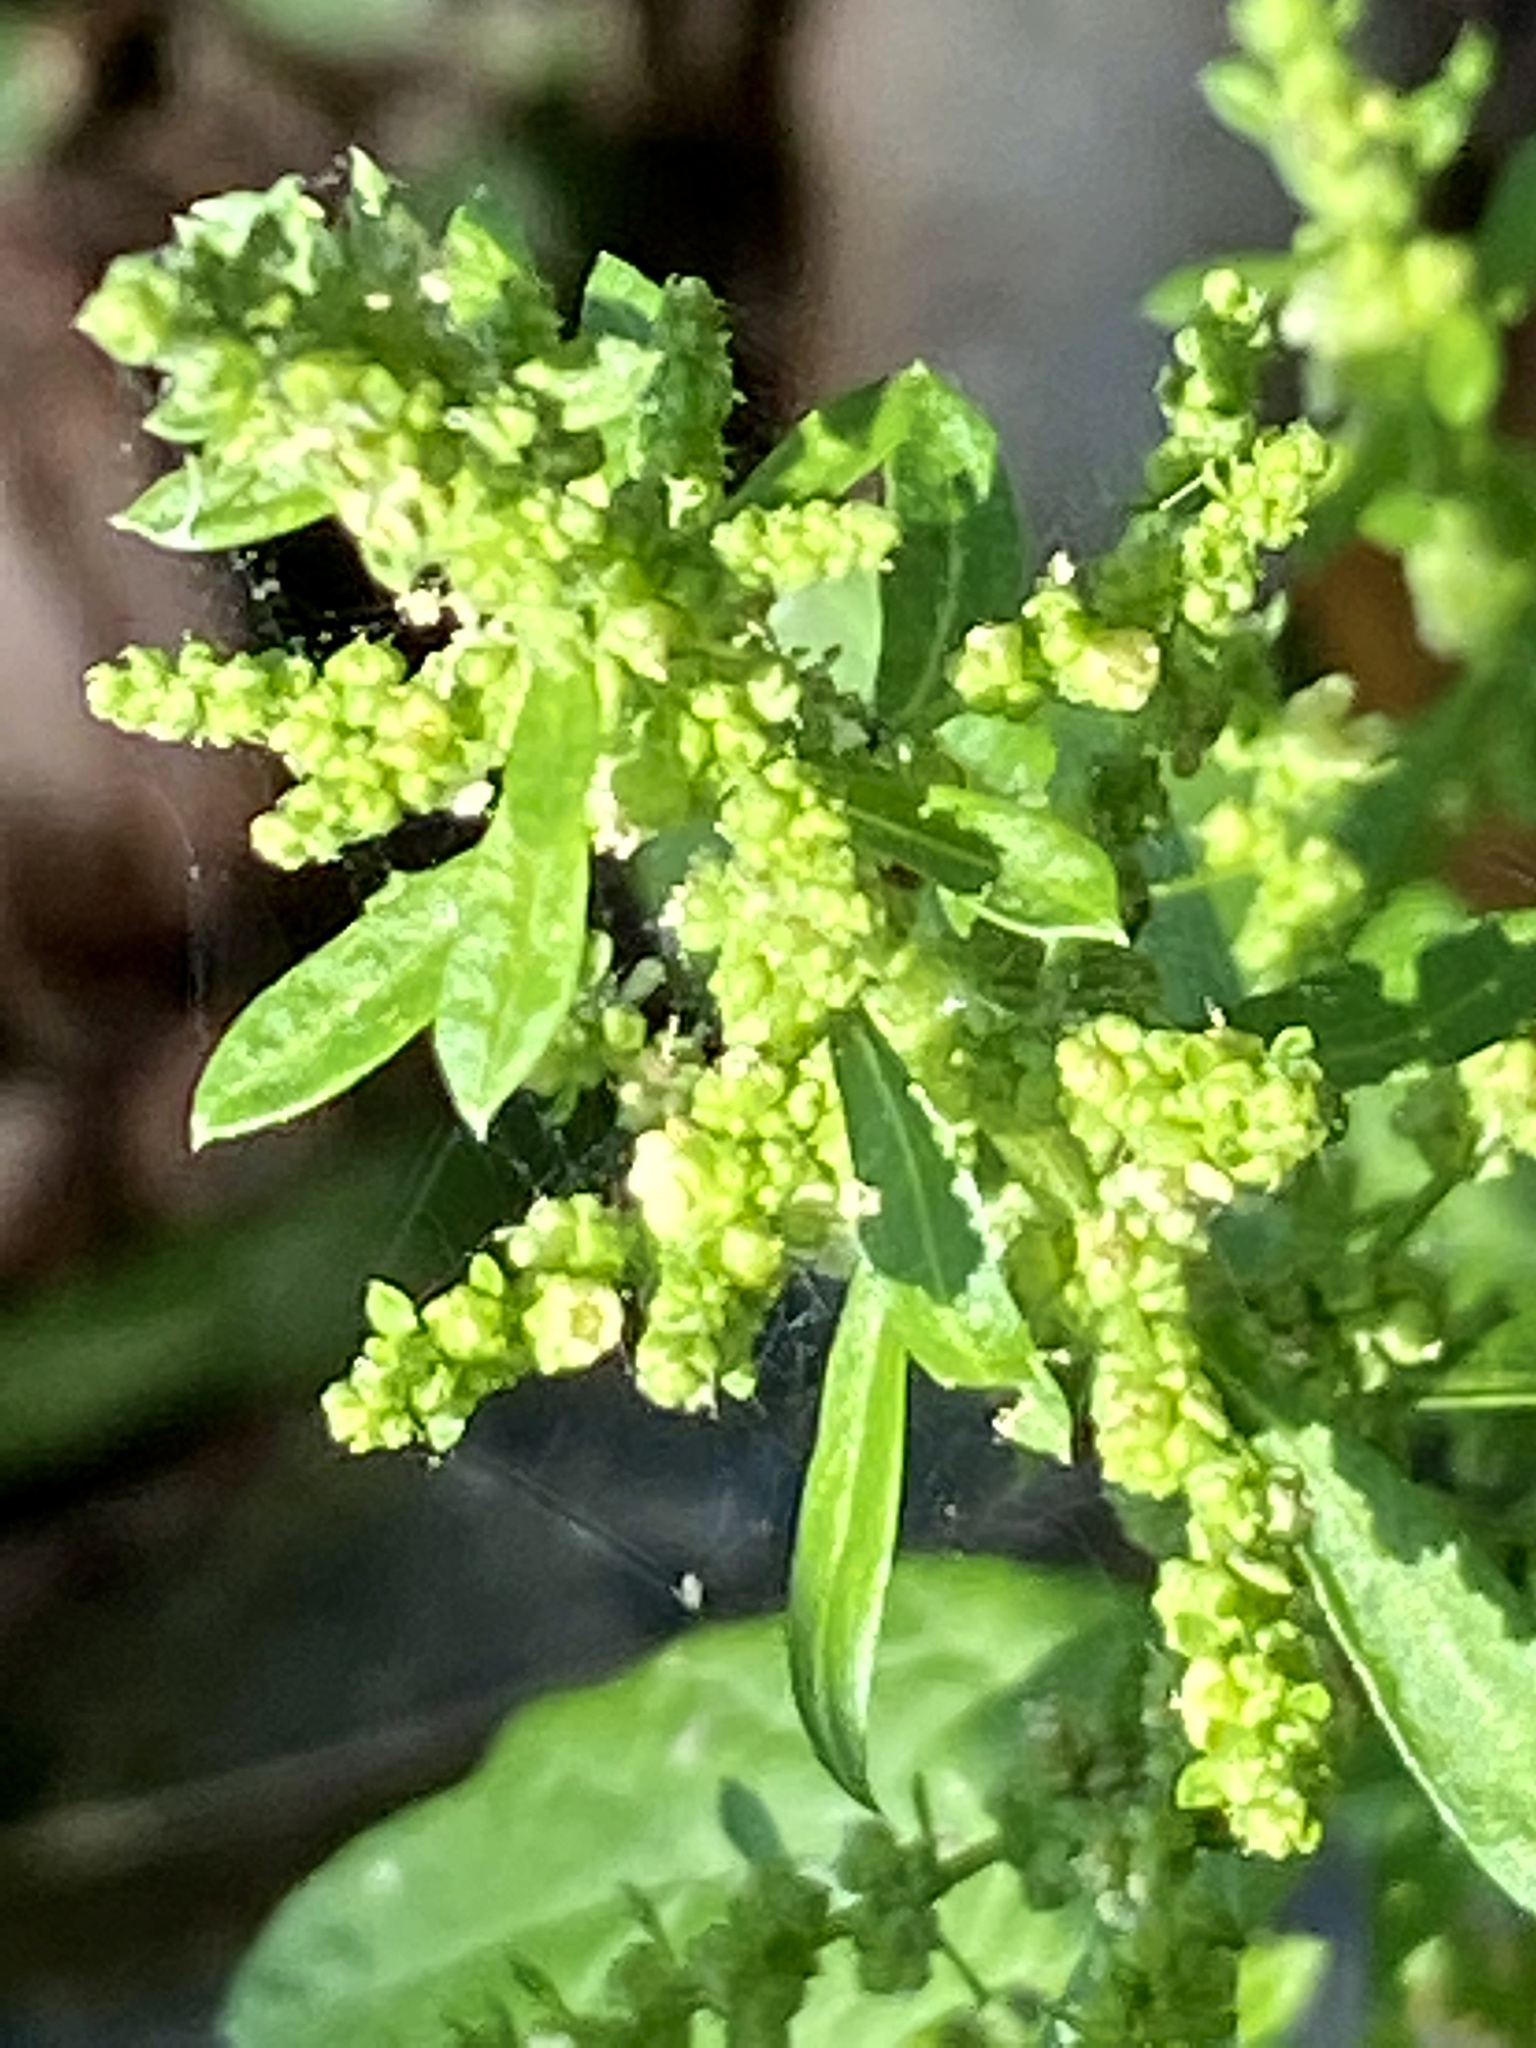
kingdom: Plantae
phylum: Tracheophyta
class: Magnoliopsida
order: Caryophyllales
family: Amaranthaceae
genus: Dysphania
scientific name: Dysphania ambrosioides
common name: Wormseed
